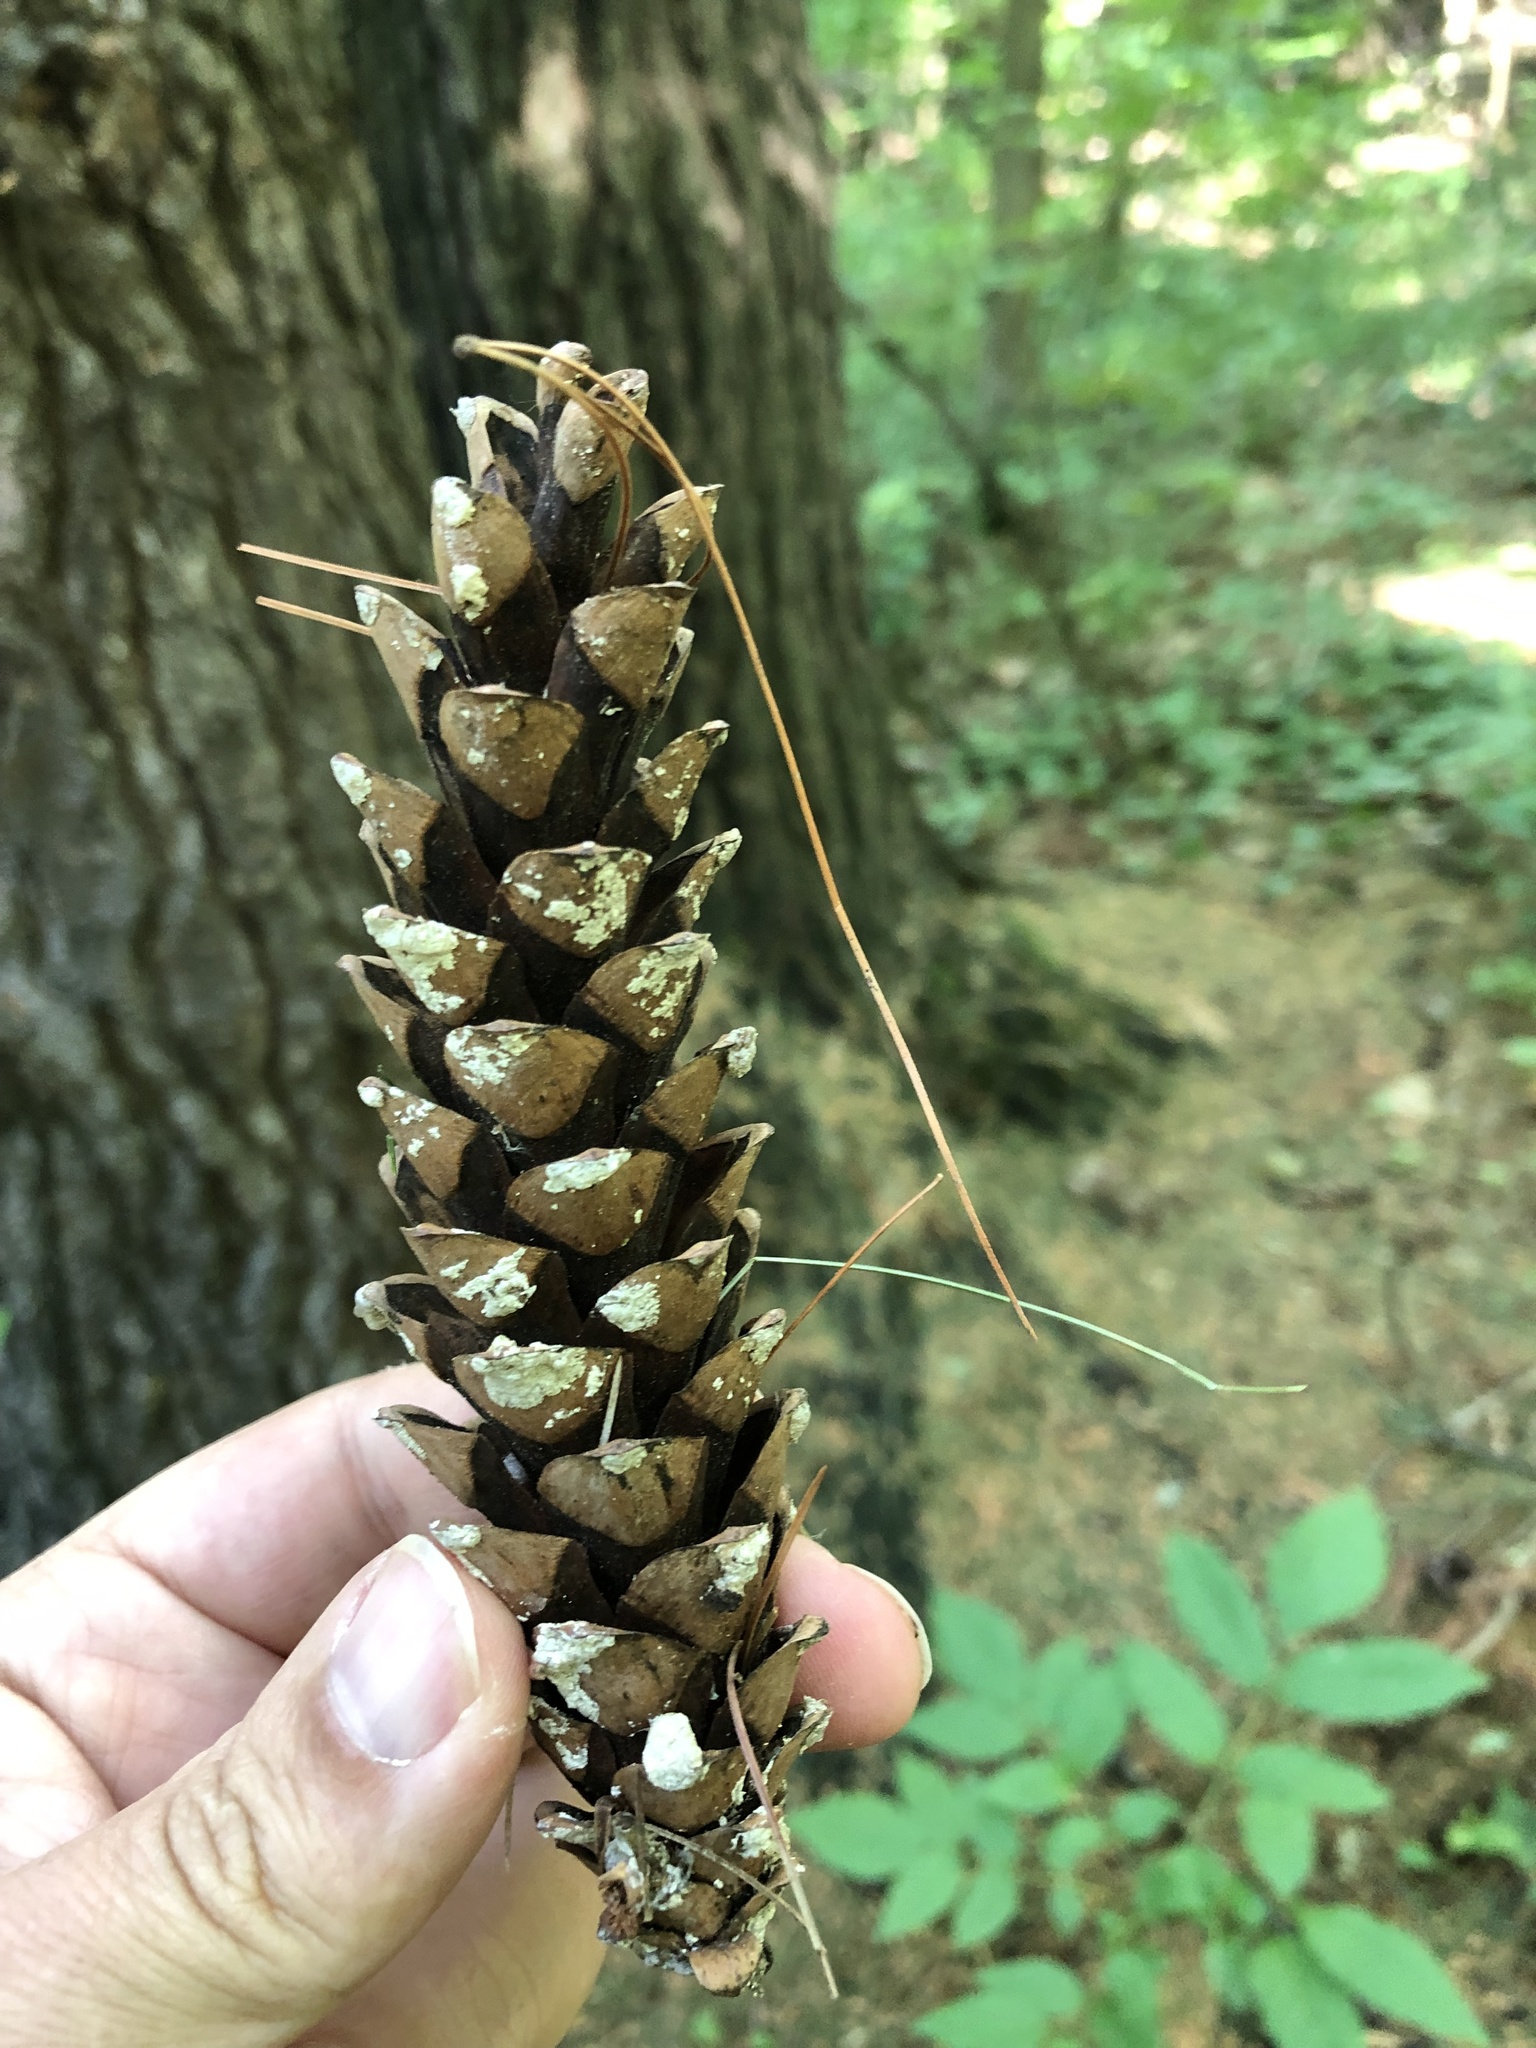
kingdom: Plantae
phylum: Tracheophyta
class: Pinopsida
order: Pinales
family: Pinaceae
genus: Pinus
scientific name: Pinus strobus
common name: Weymouth pine
